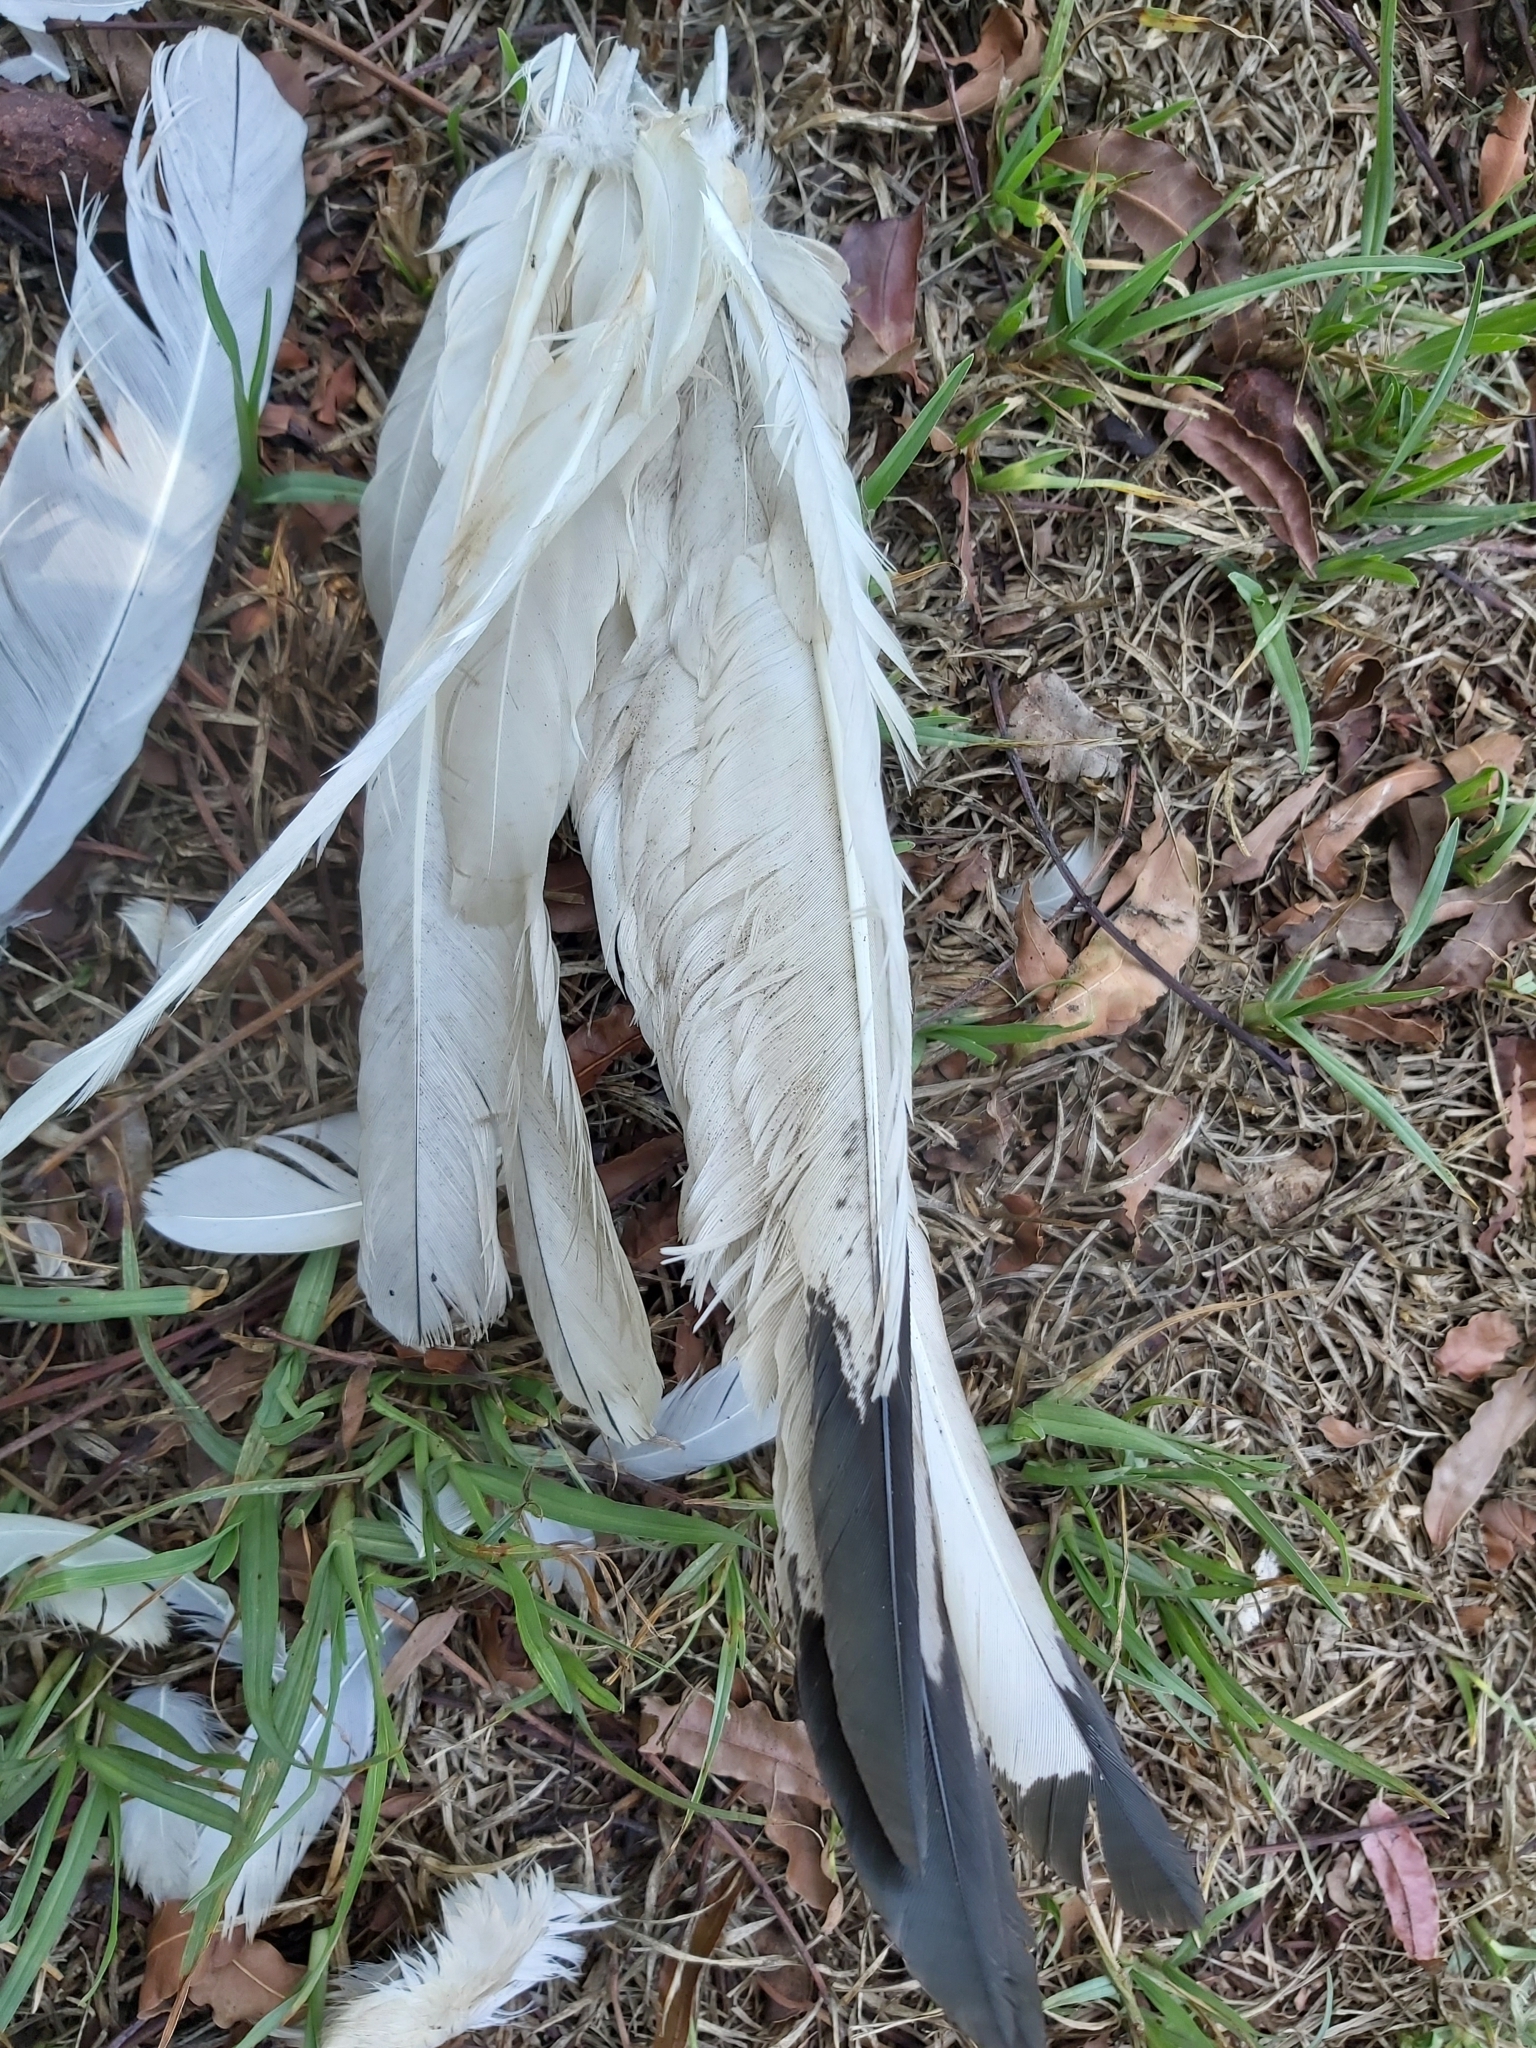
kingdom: Animalia
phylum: Chordata
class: Aves
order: Pelecaniformes
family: Threskiornithidae
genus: Threskiornis
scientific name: Threskiornis molucca
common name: Australian white ibis
